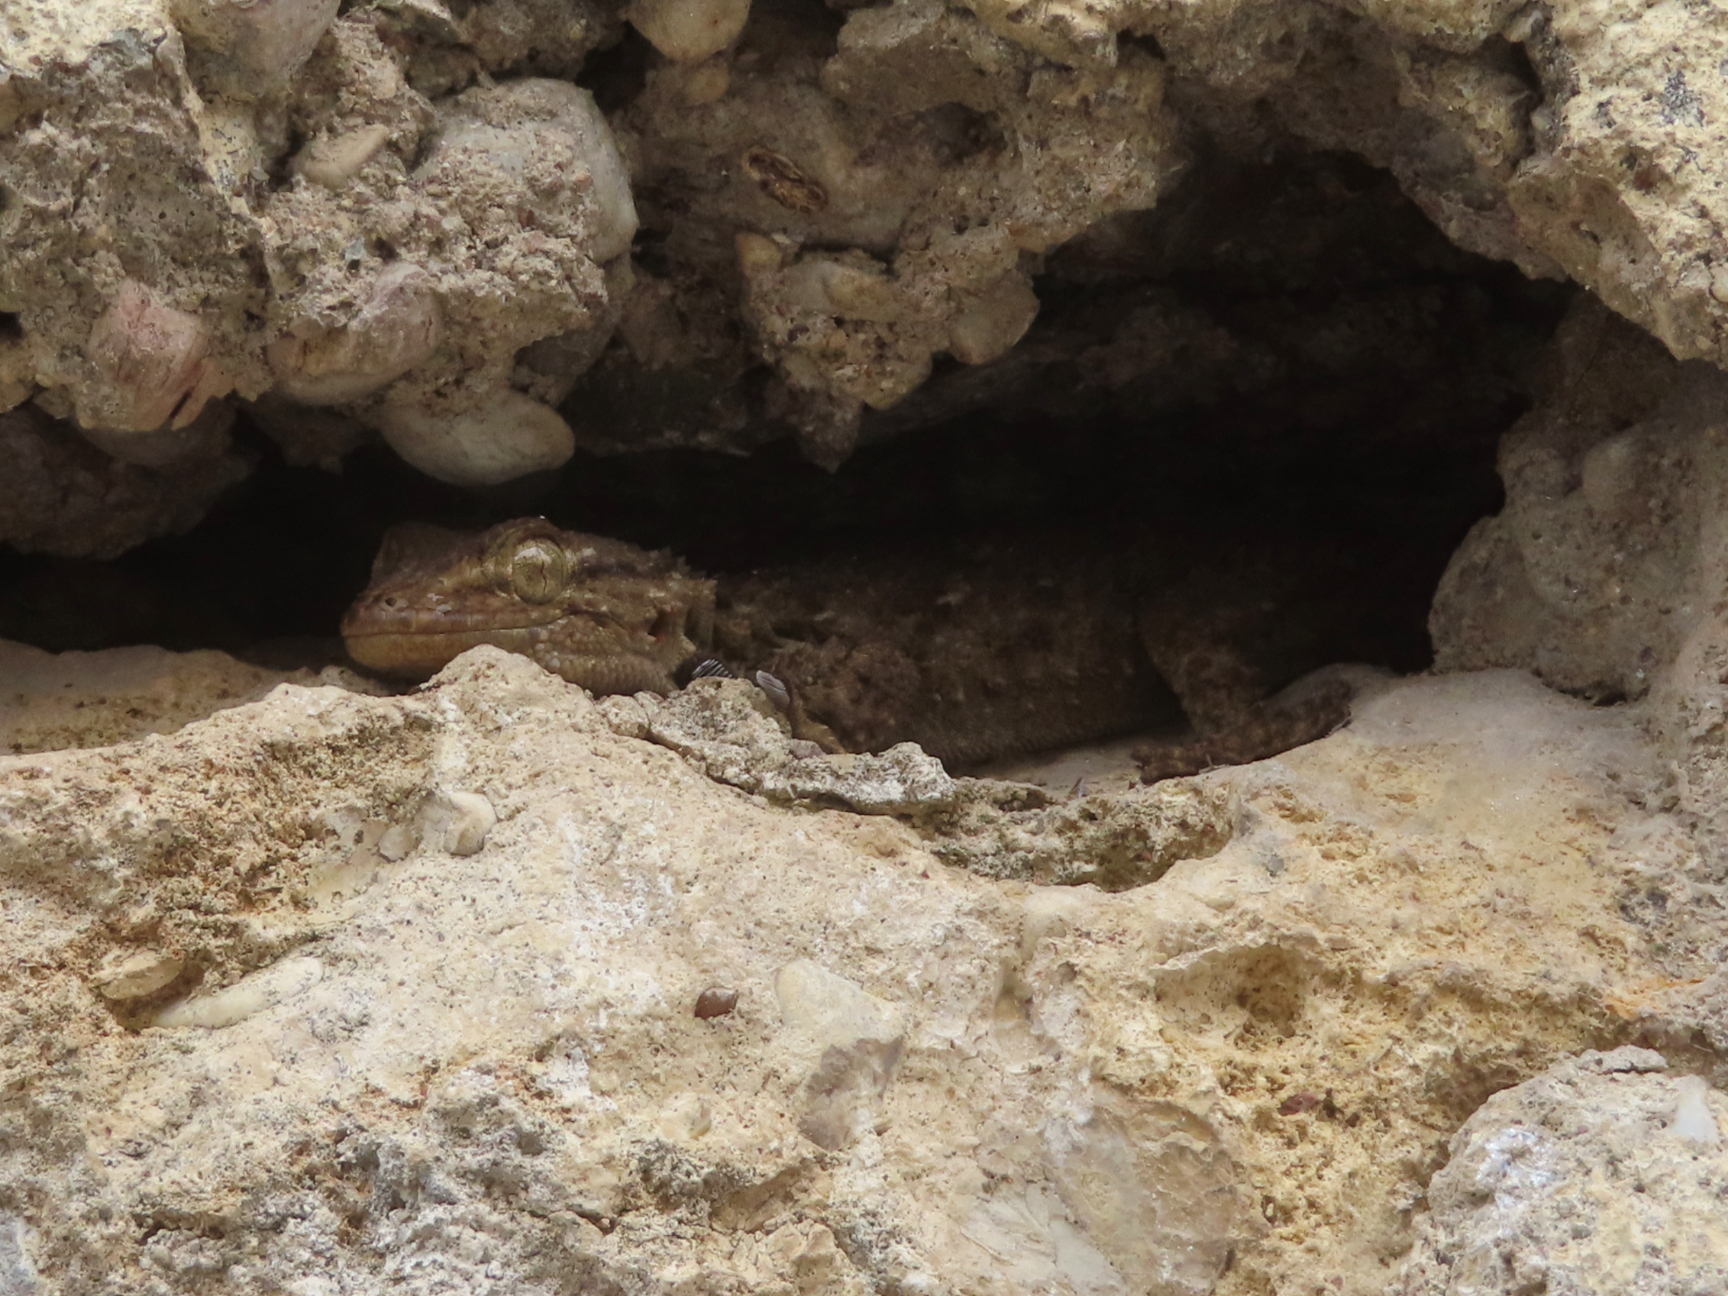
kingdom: Animalia
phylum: Chordata
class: Squamata
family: Phyllodactylidae
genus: Tarentola
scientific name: Tarentola mauritanica
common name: Moorish gecko
